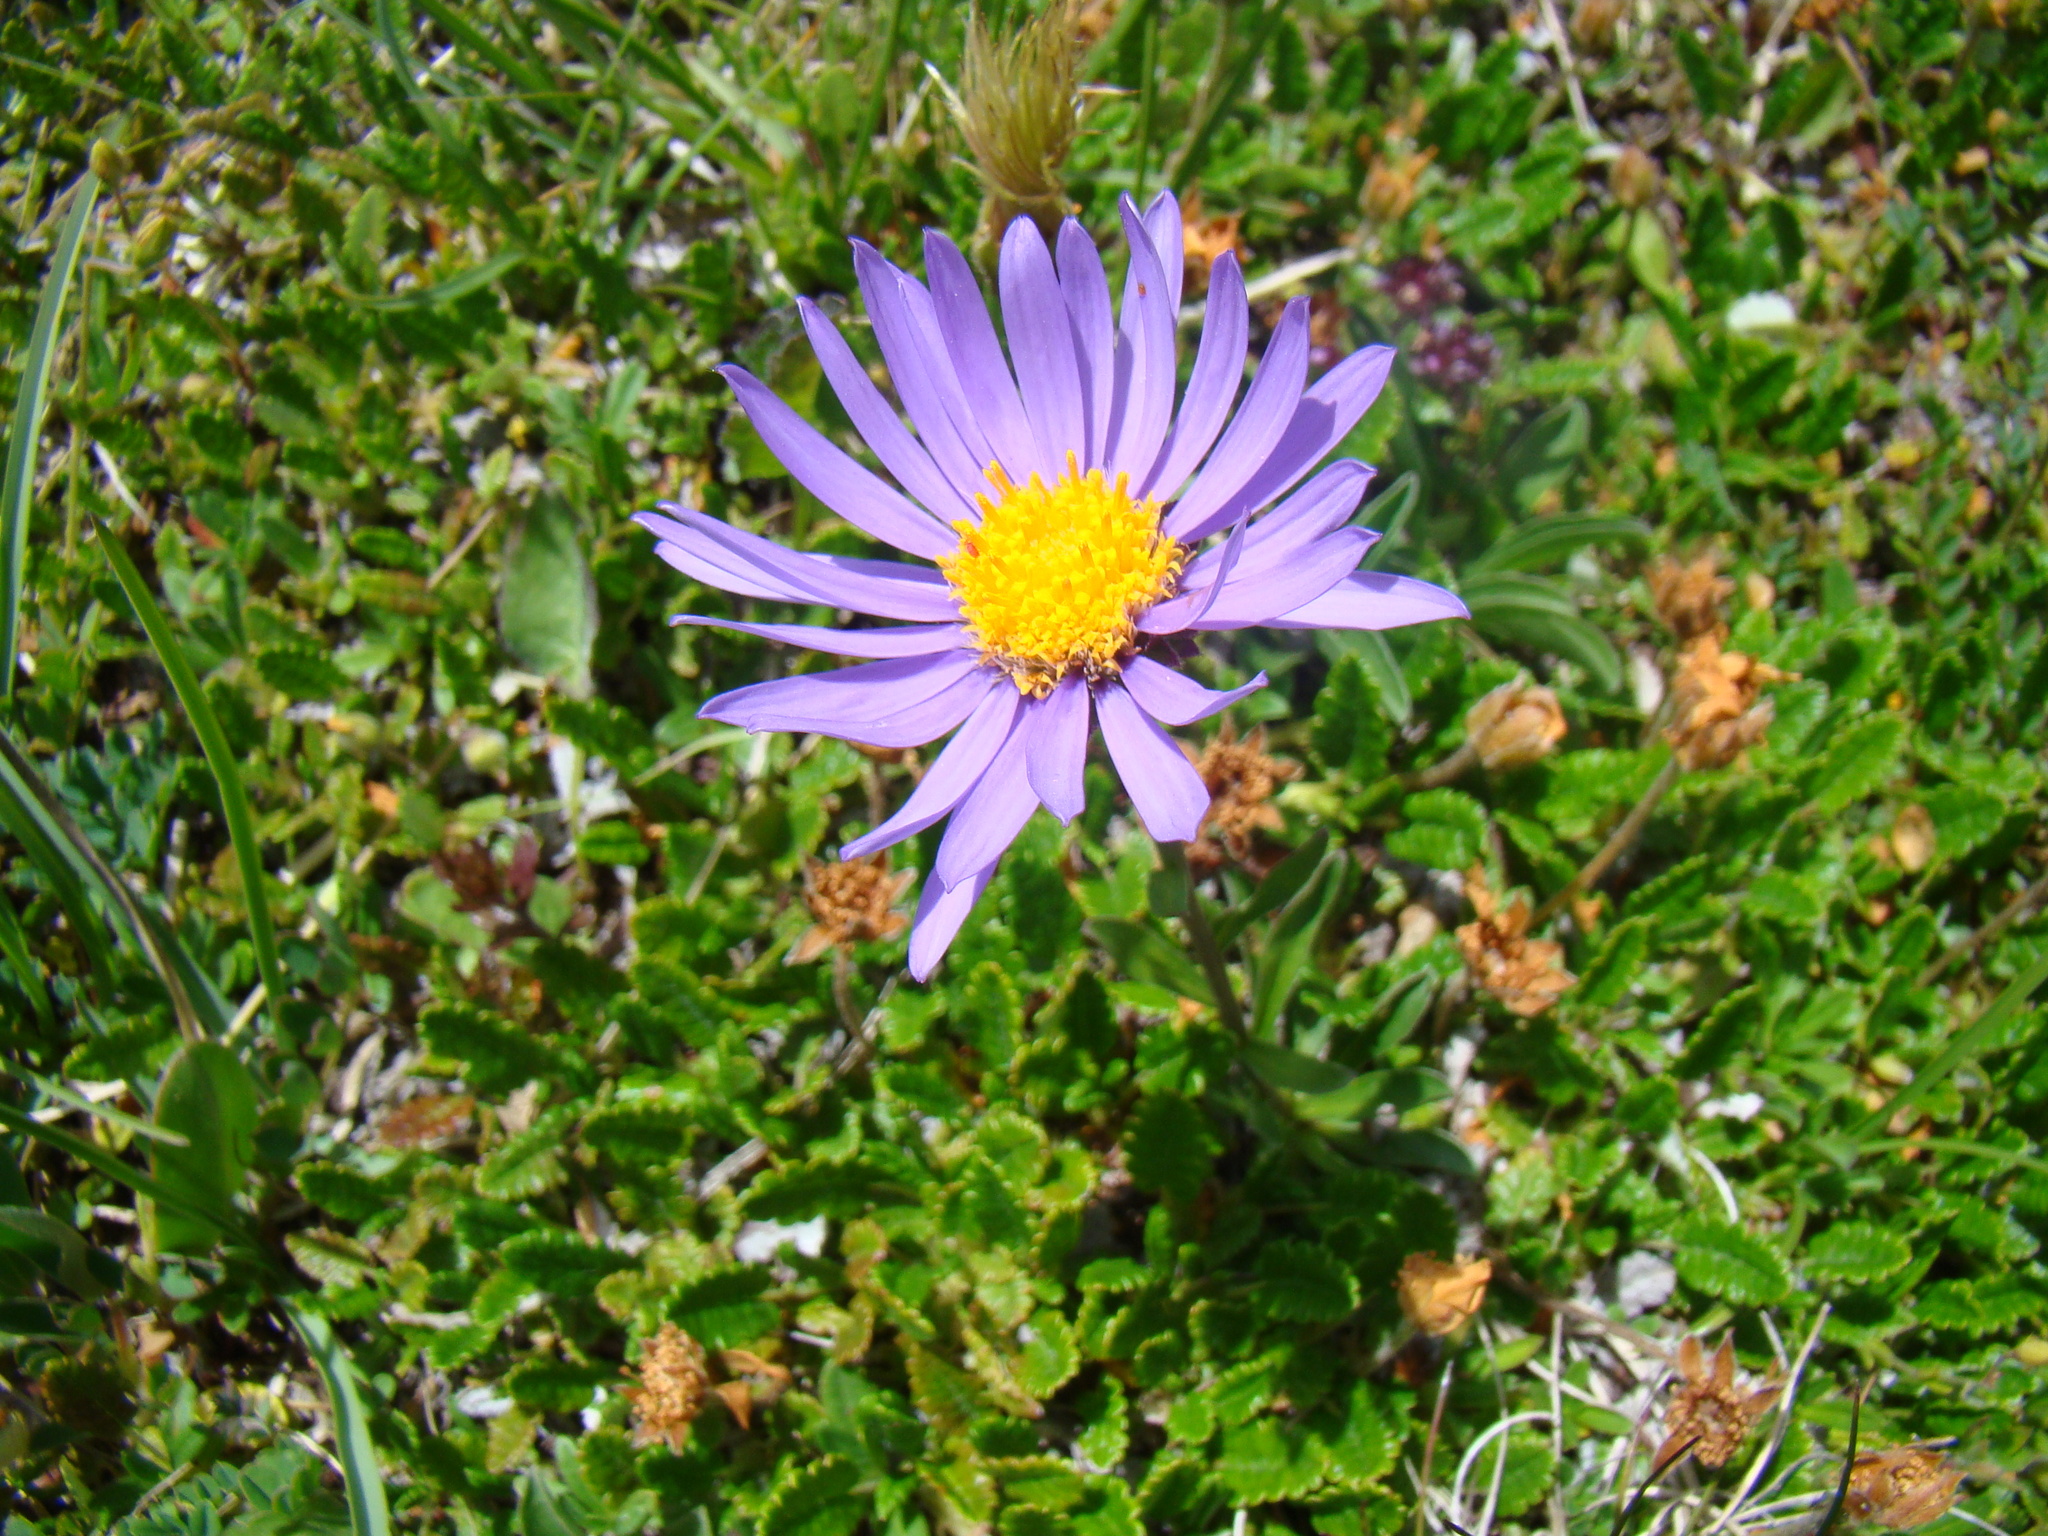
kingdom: Plantae
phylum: Tracheophyta
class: Magnoliopsida
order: Asterales
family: Asteraceae
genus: Aster
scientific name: Aster alpinus
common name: Alpine aster
